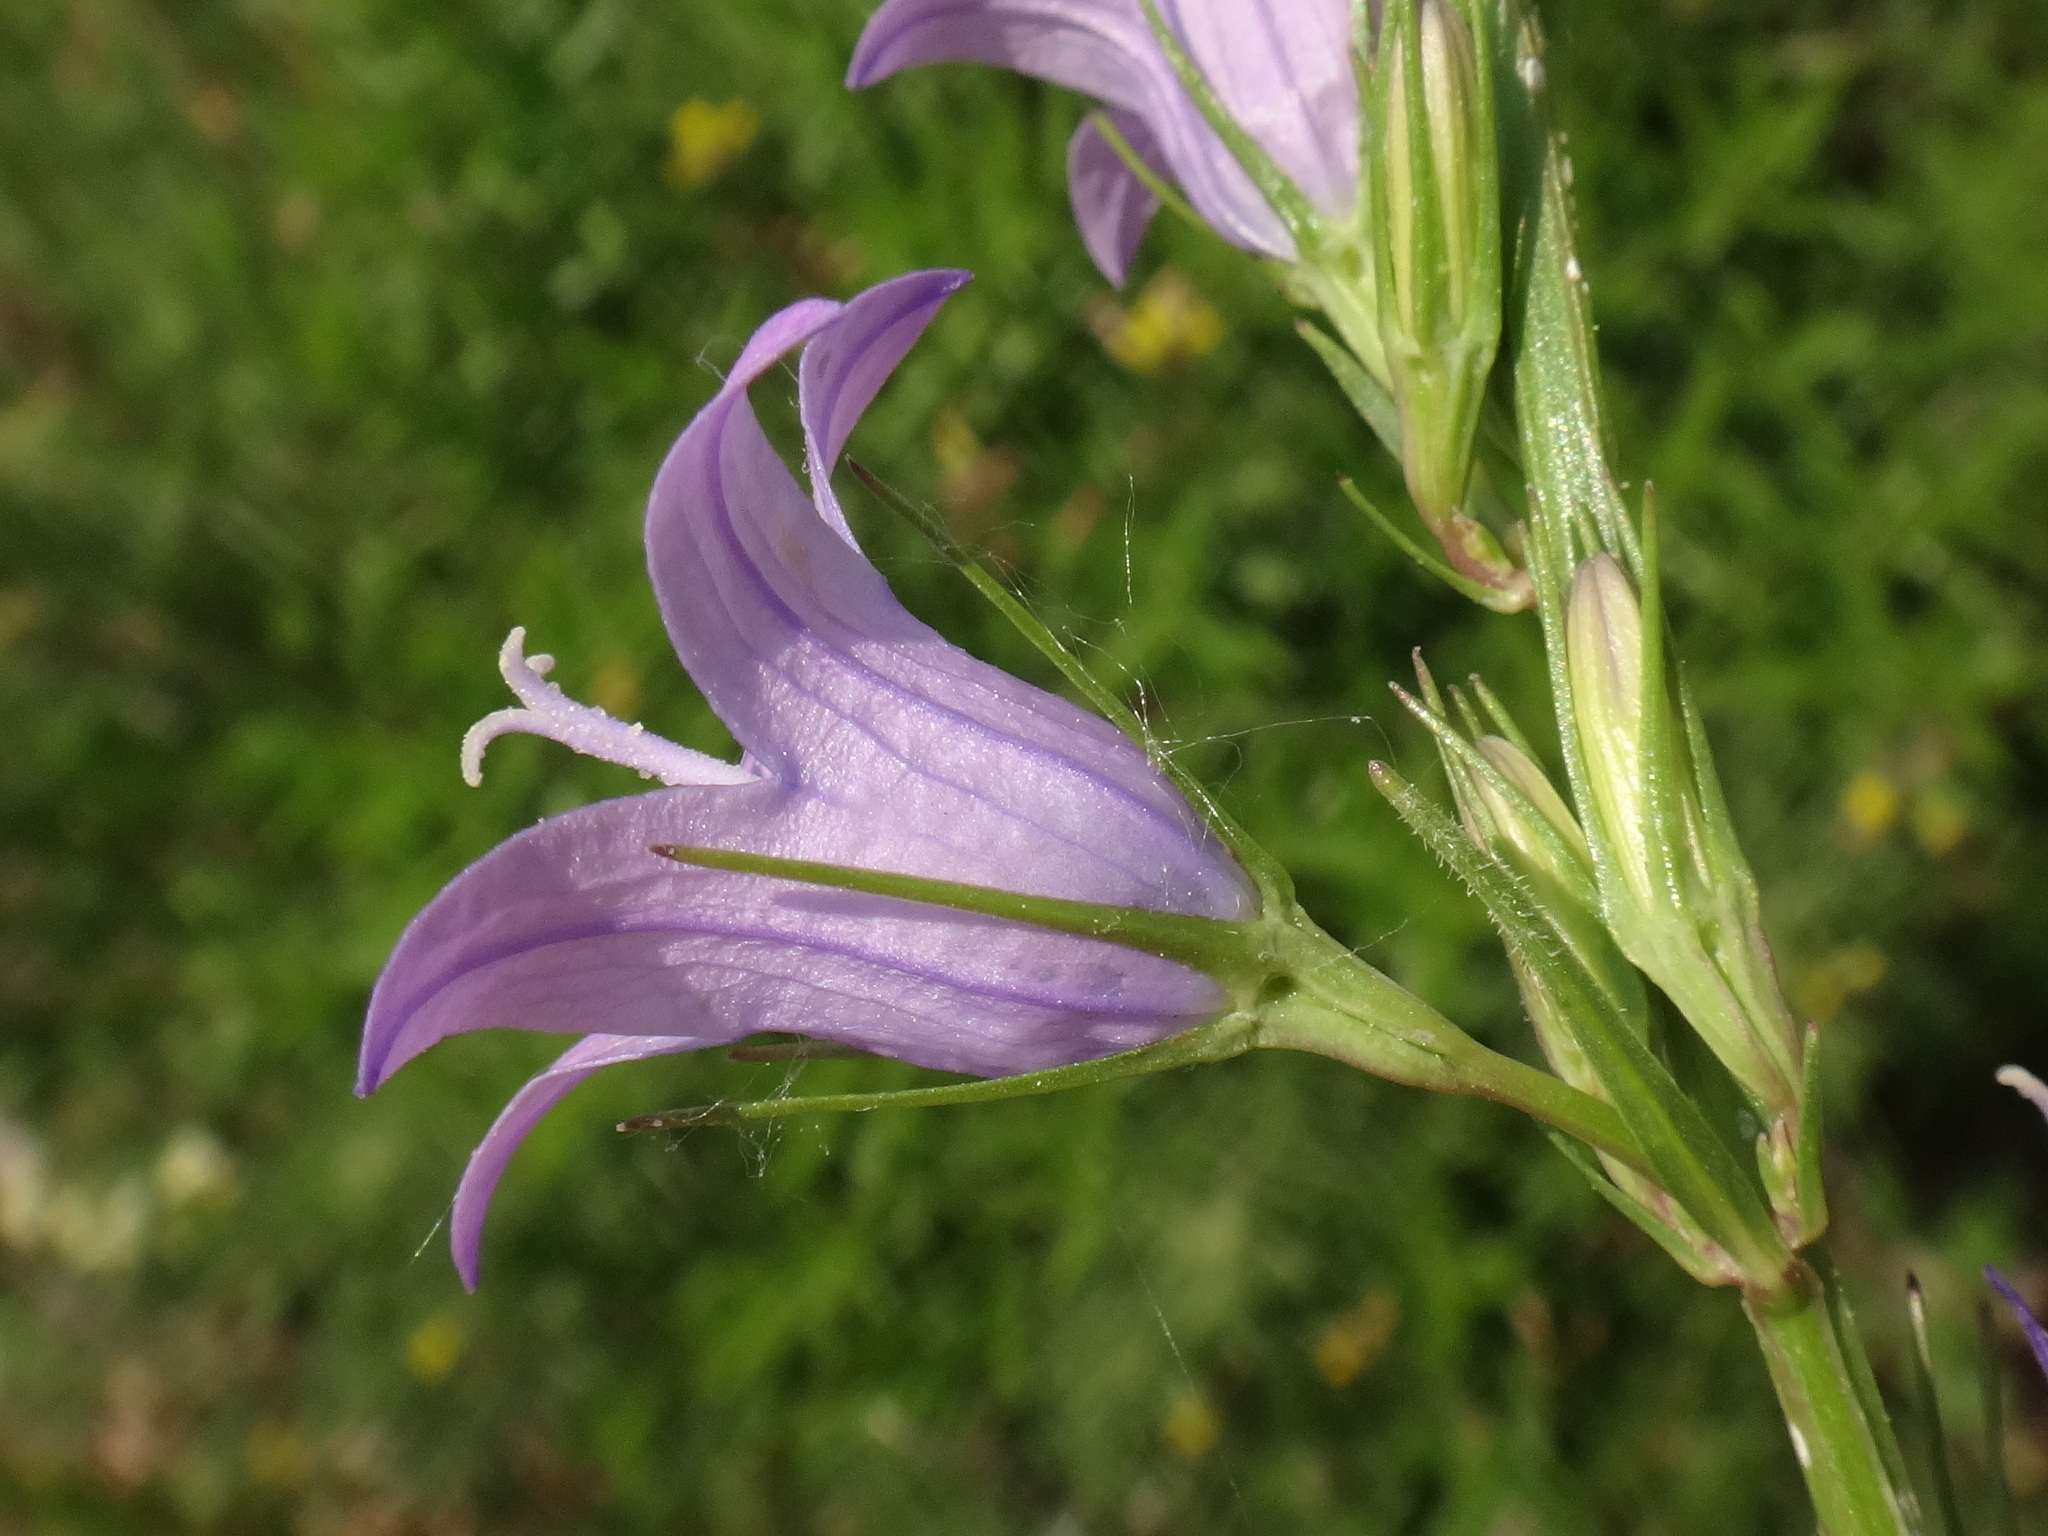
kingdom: Plantae
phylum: Tracheophyta
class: Magnoliopsida
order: Asterales
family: Campanulaceae
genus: Campanula
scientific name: Campanula rapunculus
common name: Rampion bellflower
